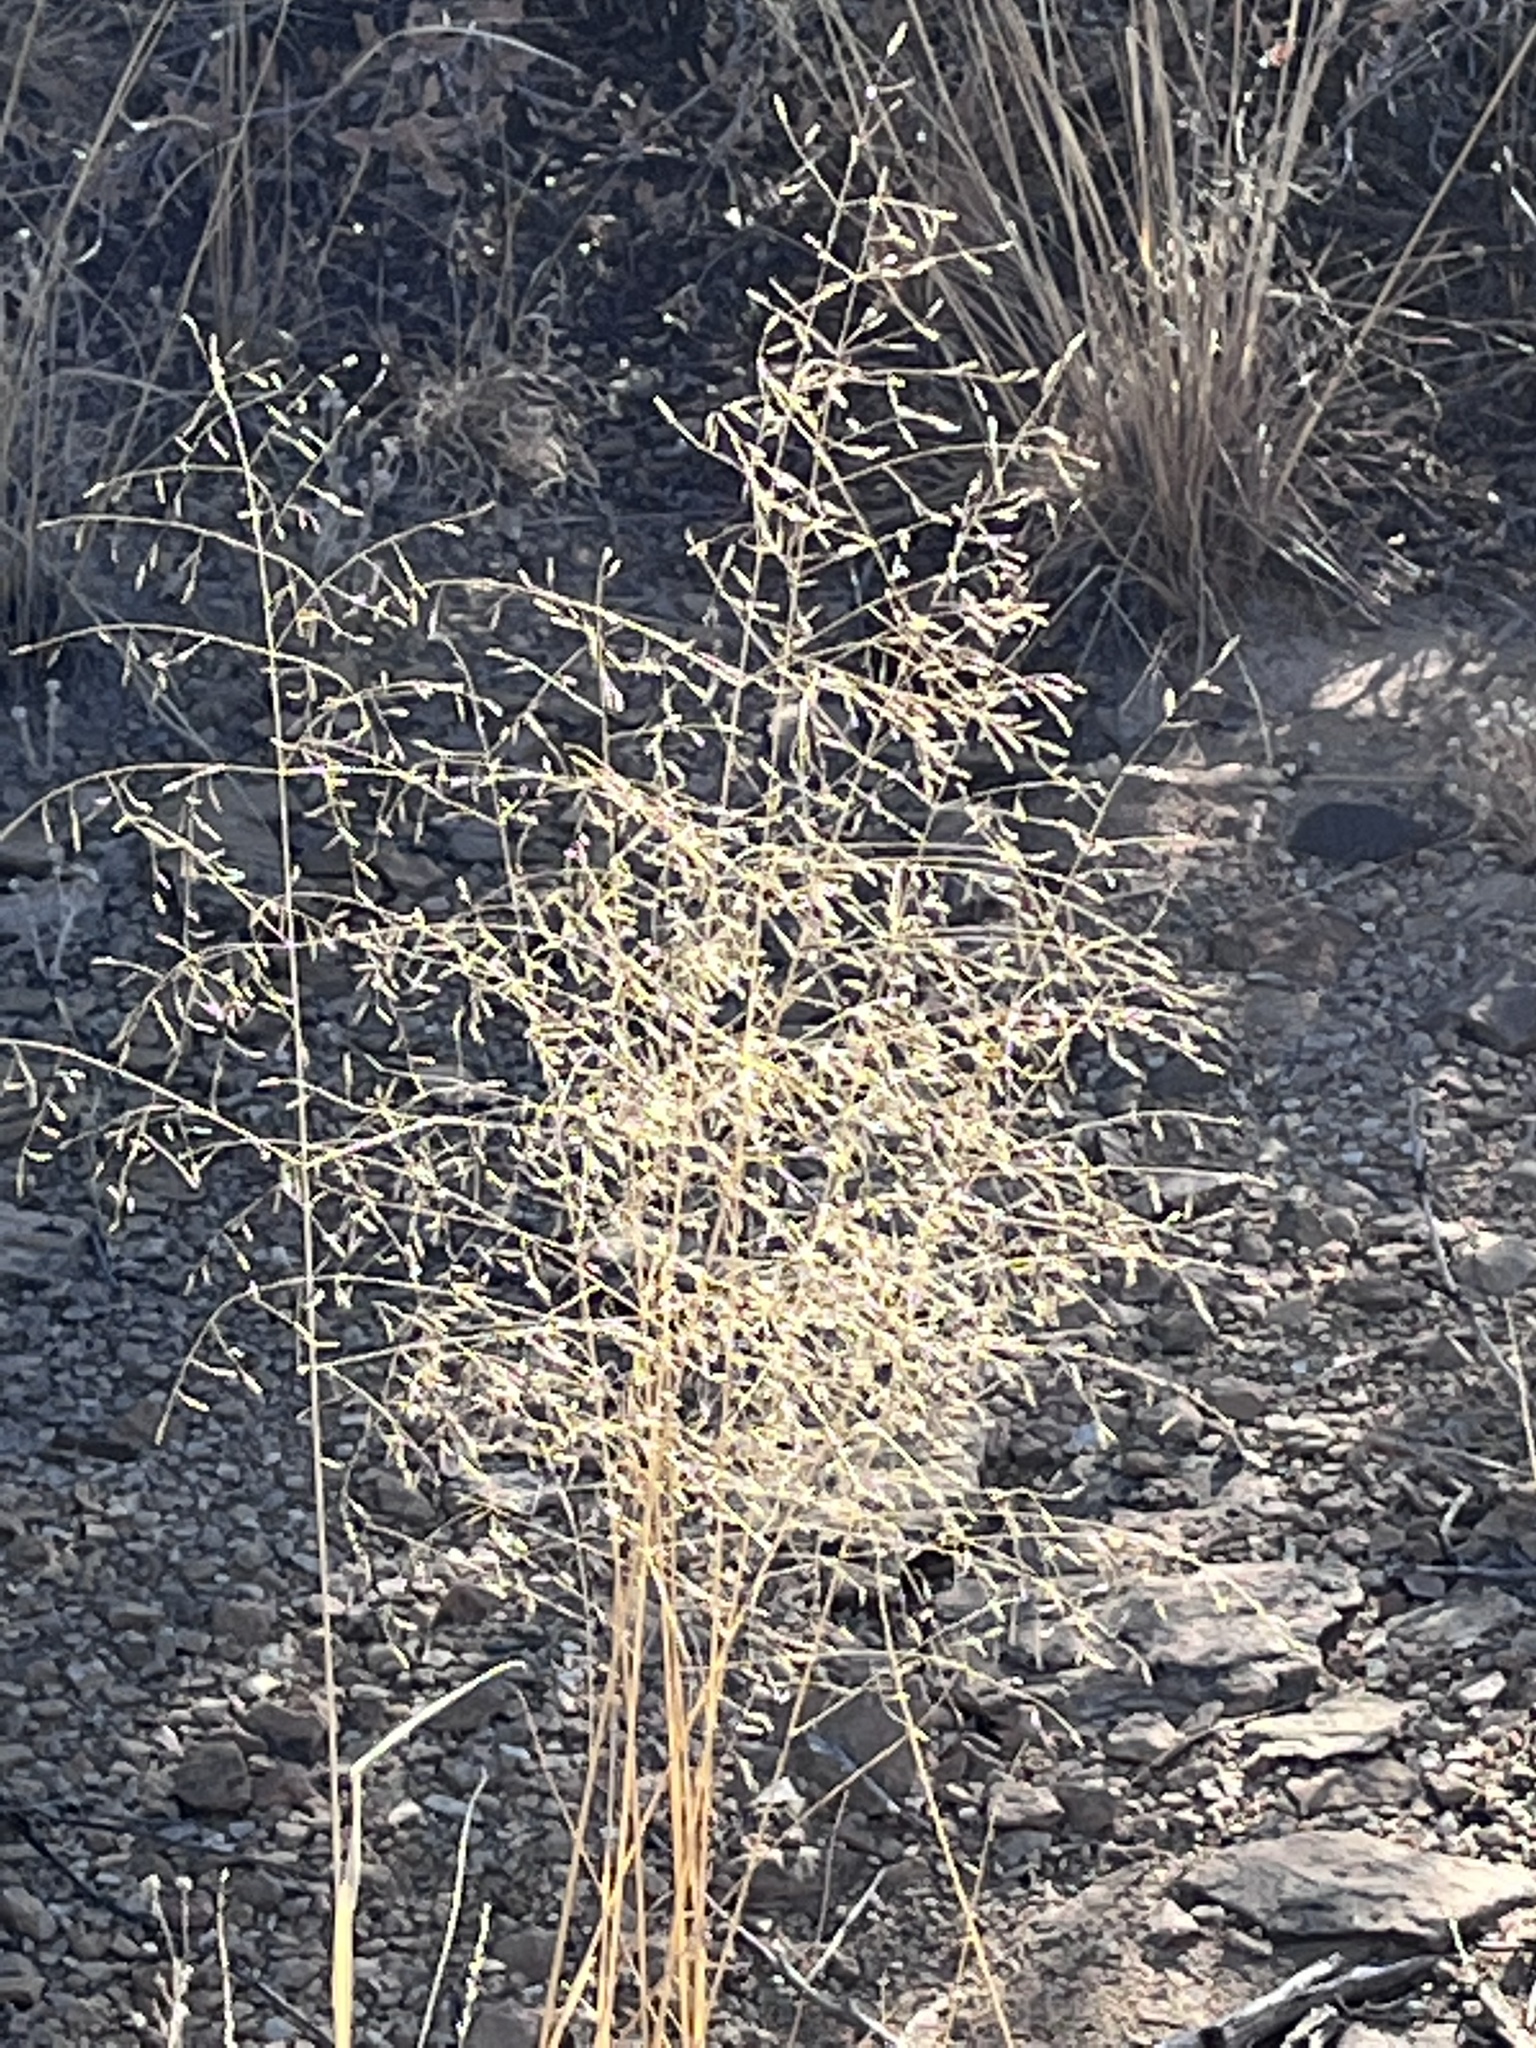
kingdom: Plantae
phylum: Tracheophyta
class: Liliopsida
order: Poales
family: Poaceae
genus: Eriocoma
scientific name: Eriocoma hymenoides
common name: Indian mountain ricegrass
